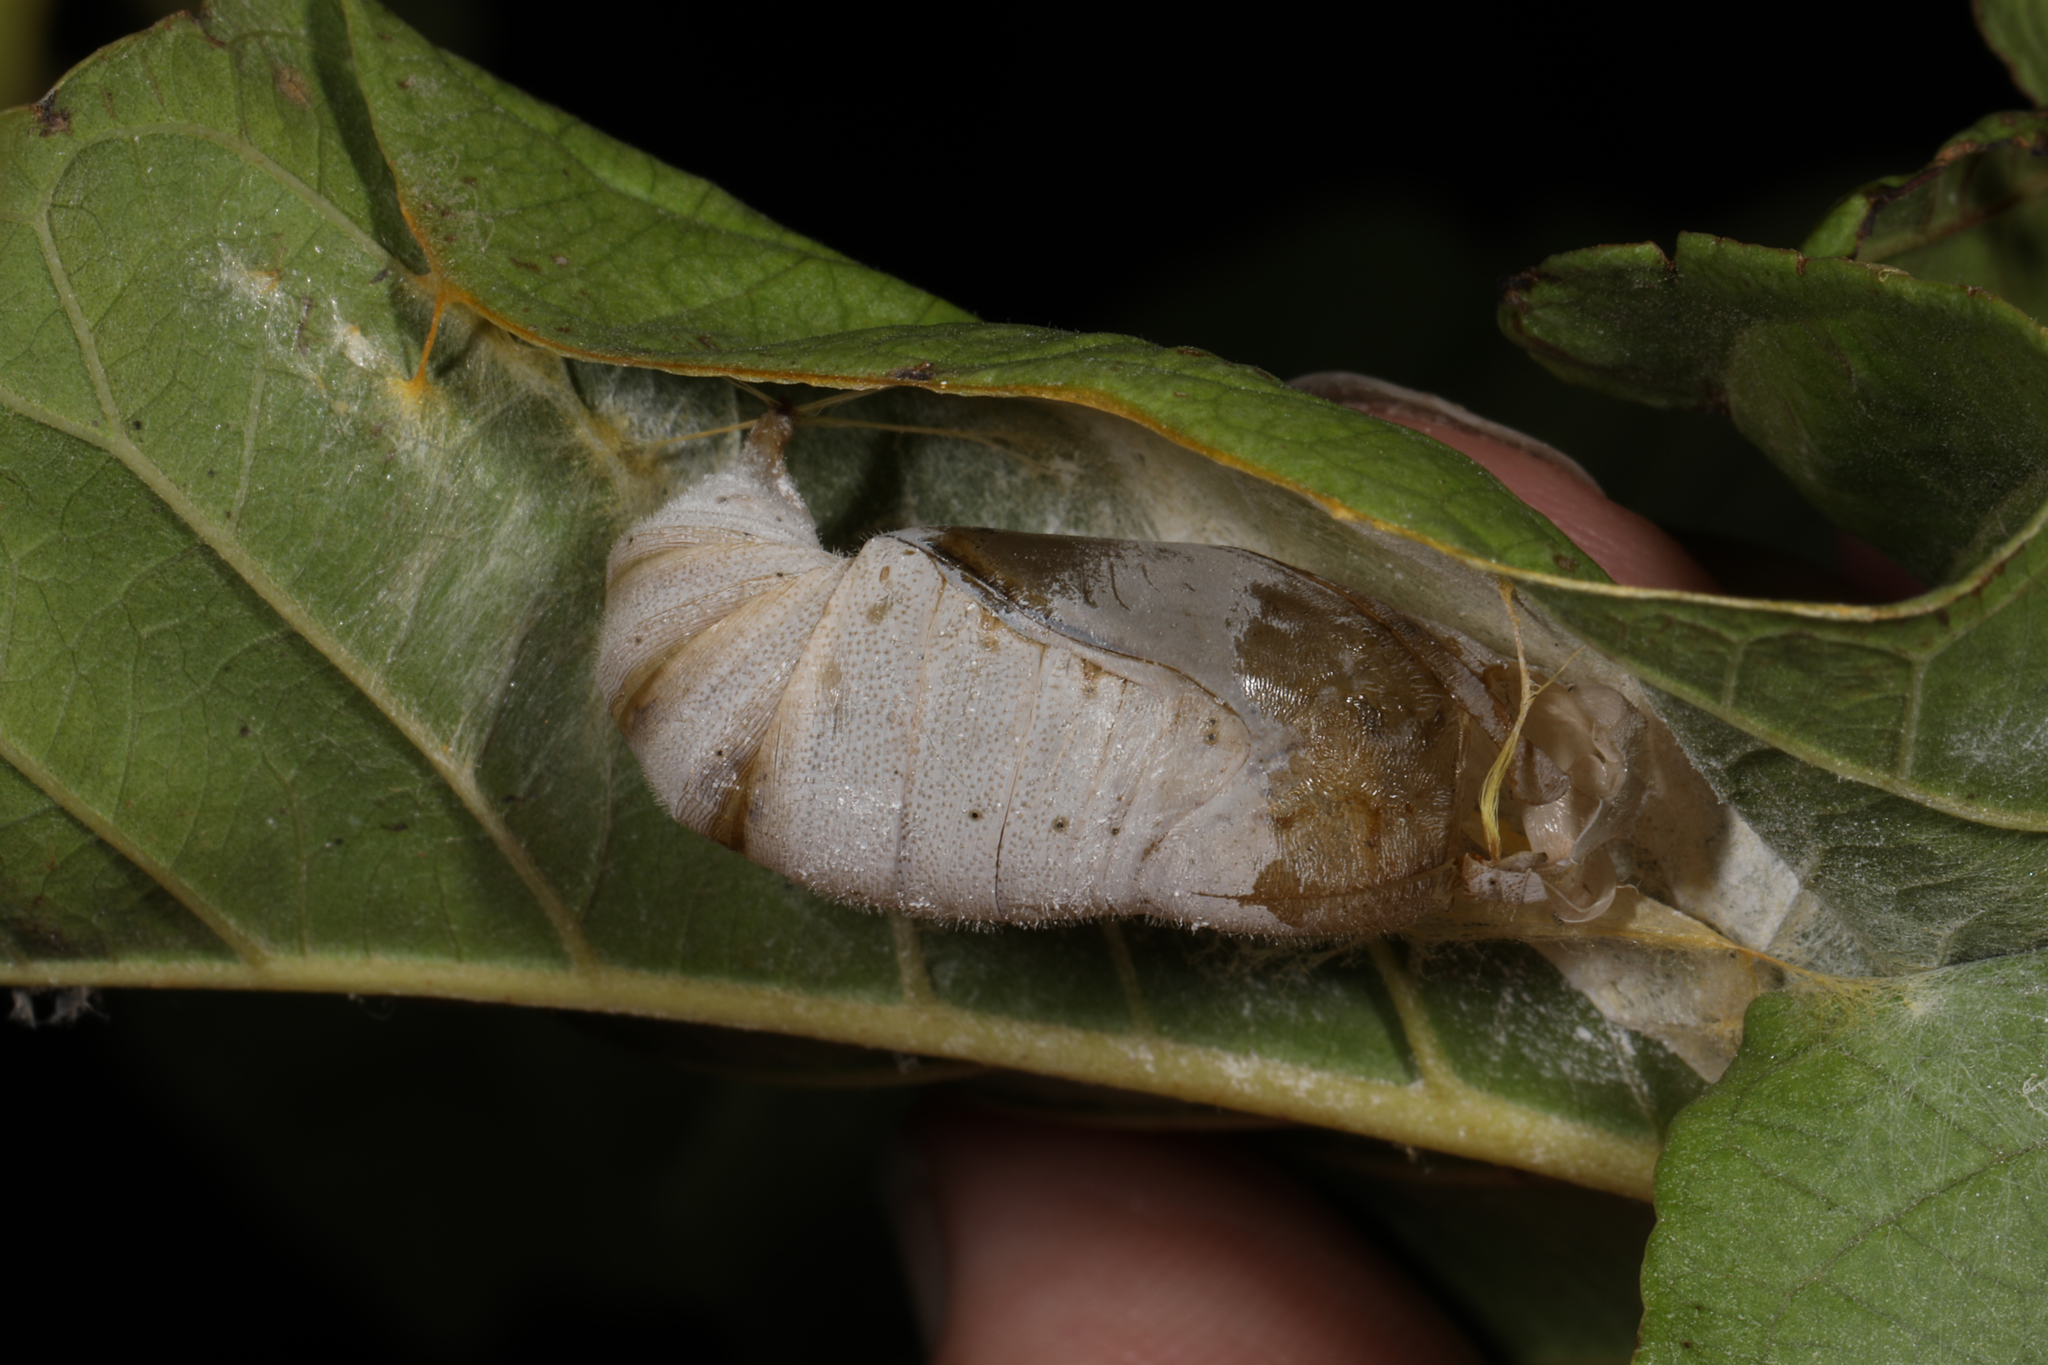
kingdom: Animalia
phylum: Arthropoda
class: Insecta
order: Lepidoptera
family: Hesperiidae
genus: Phocides
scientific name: Phocides lilea
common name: Guava skipper
